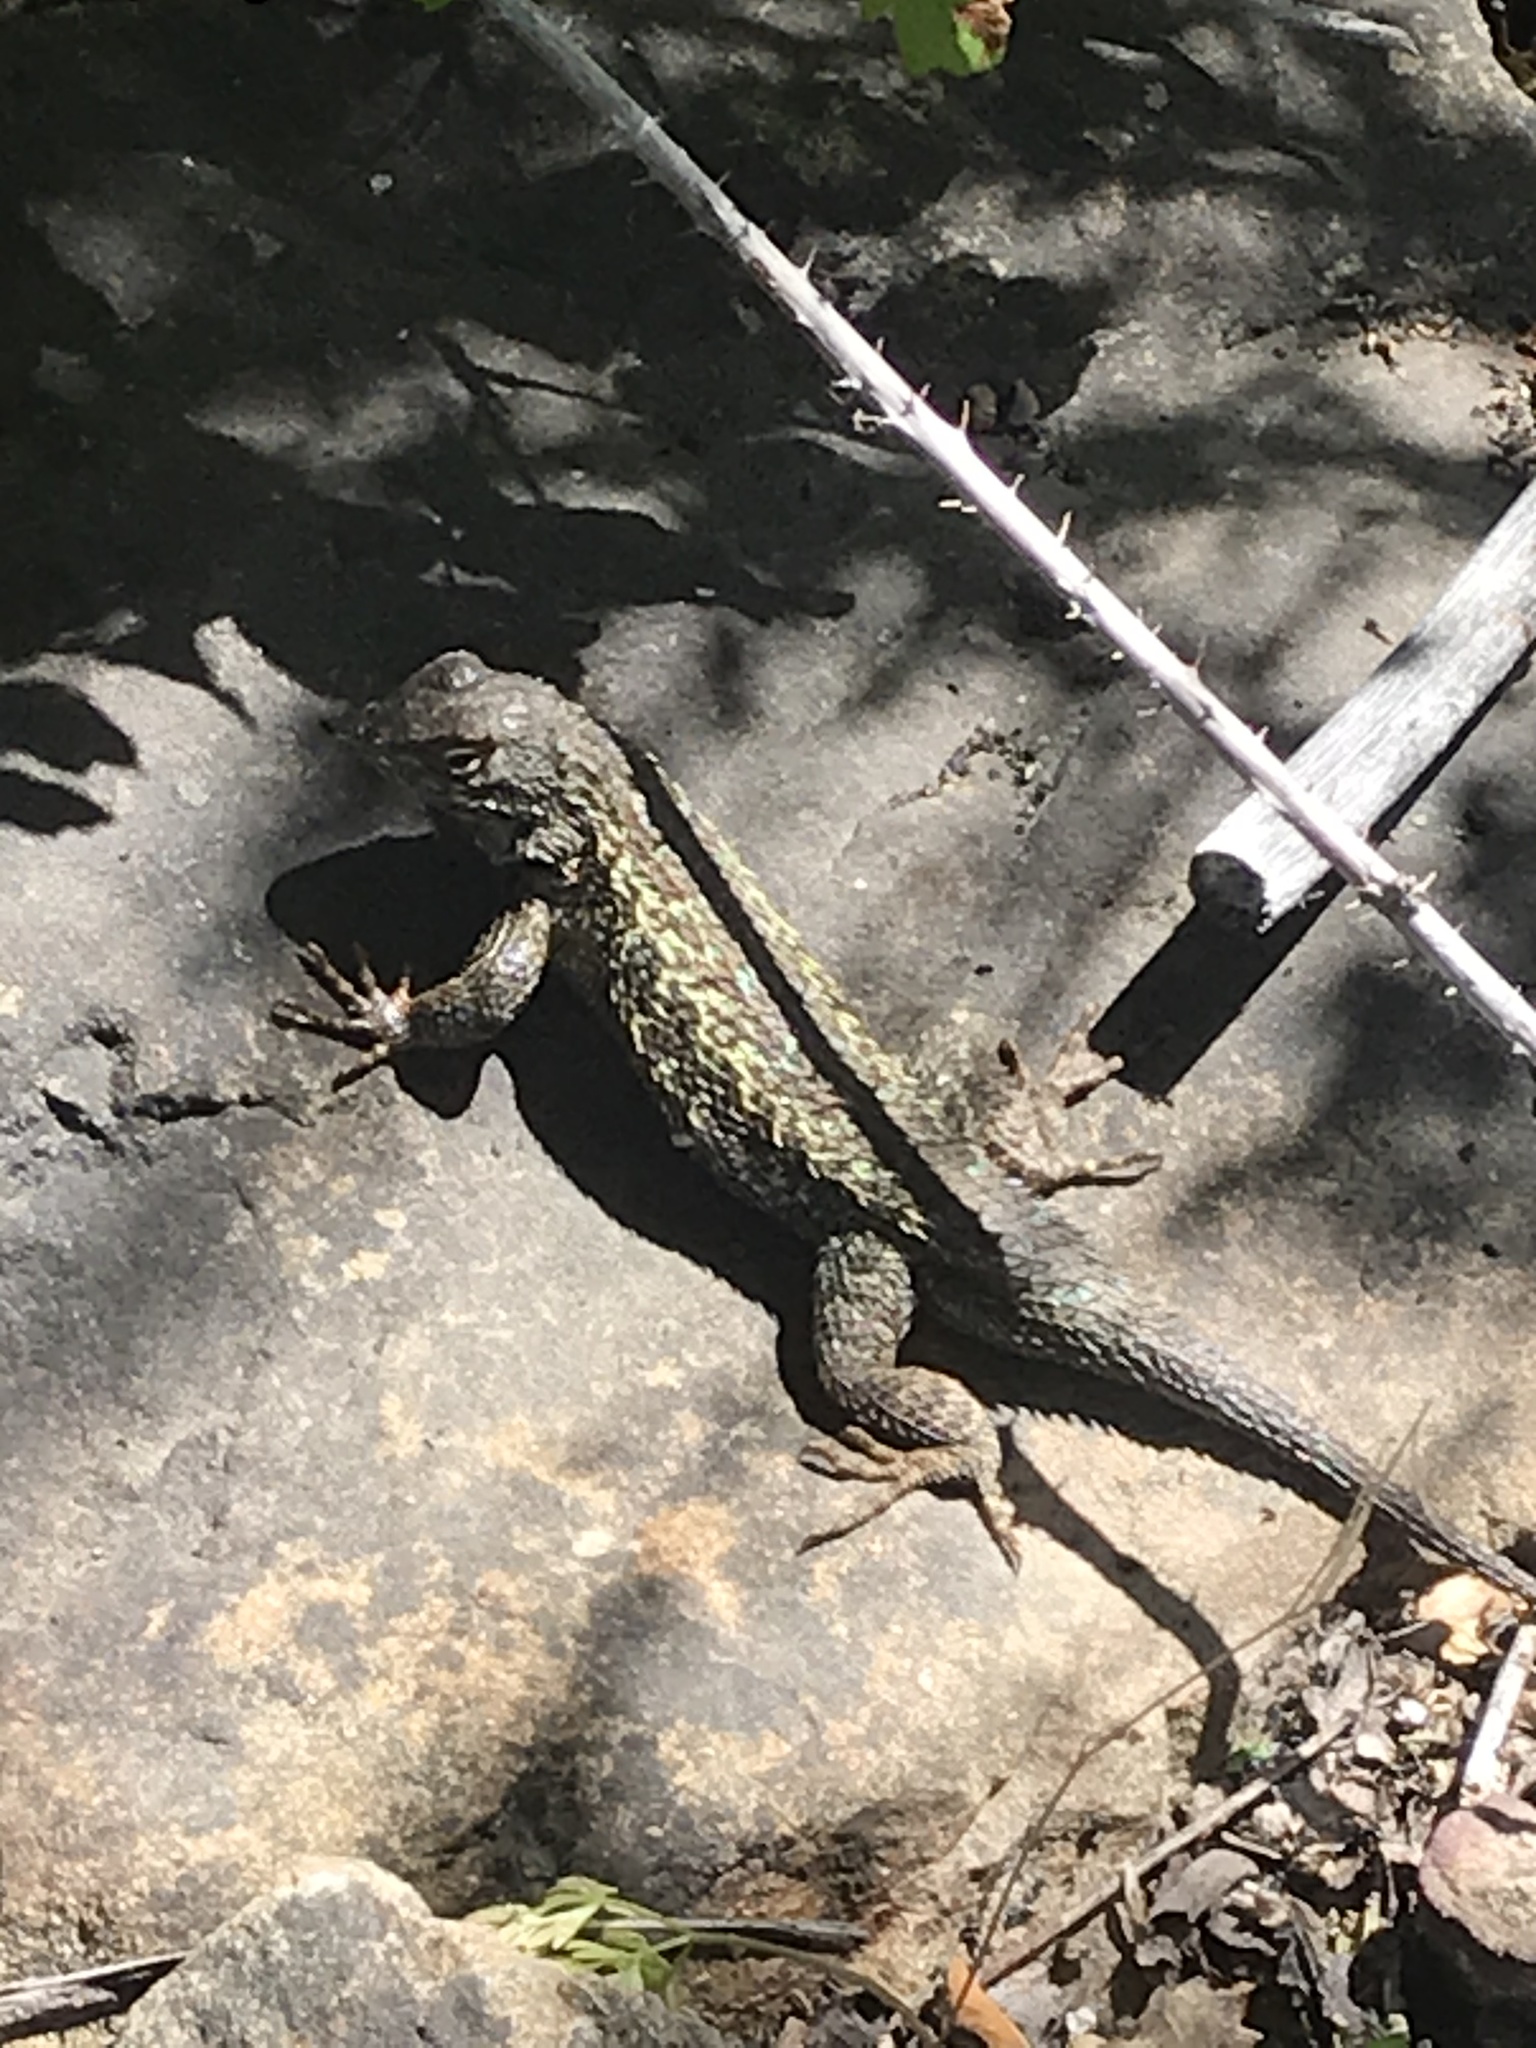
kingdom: Animalia
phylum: Chordata
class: Squamata
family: Phrynosomatidae
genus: Sceloporus
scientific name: Sceloporus occidentalis
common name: Western fence lizard
